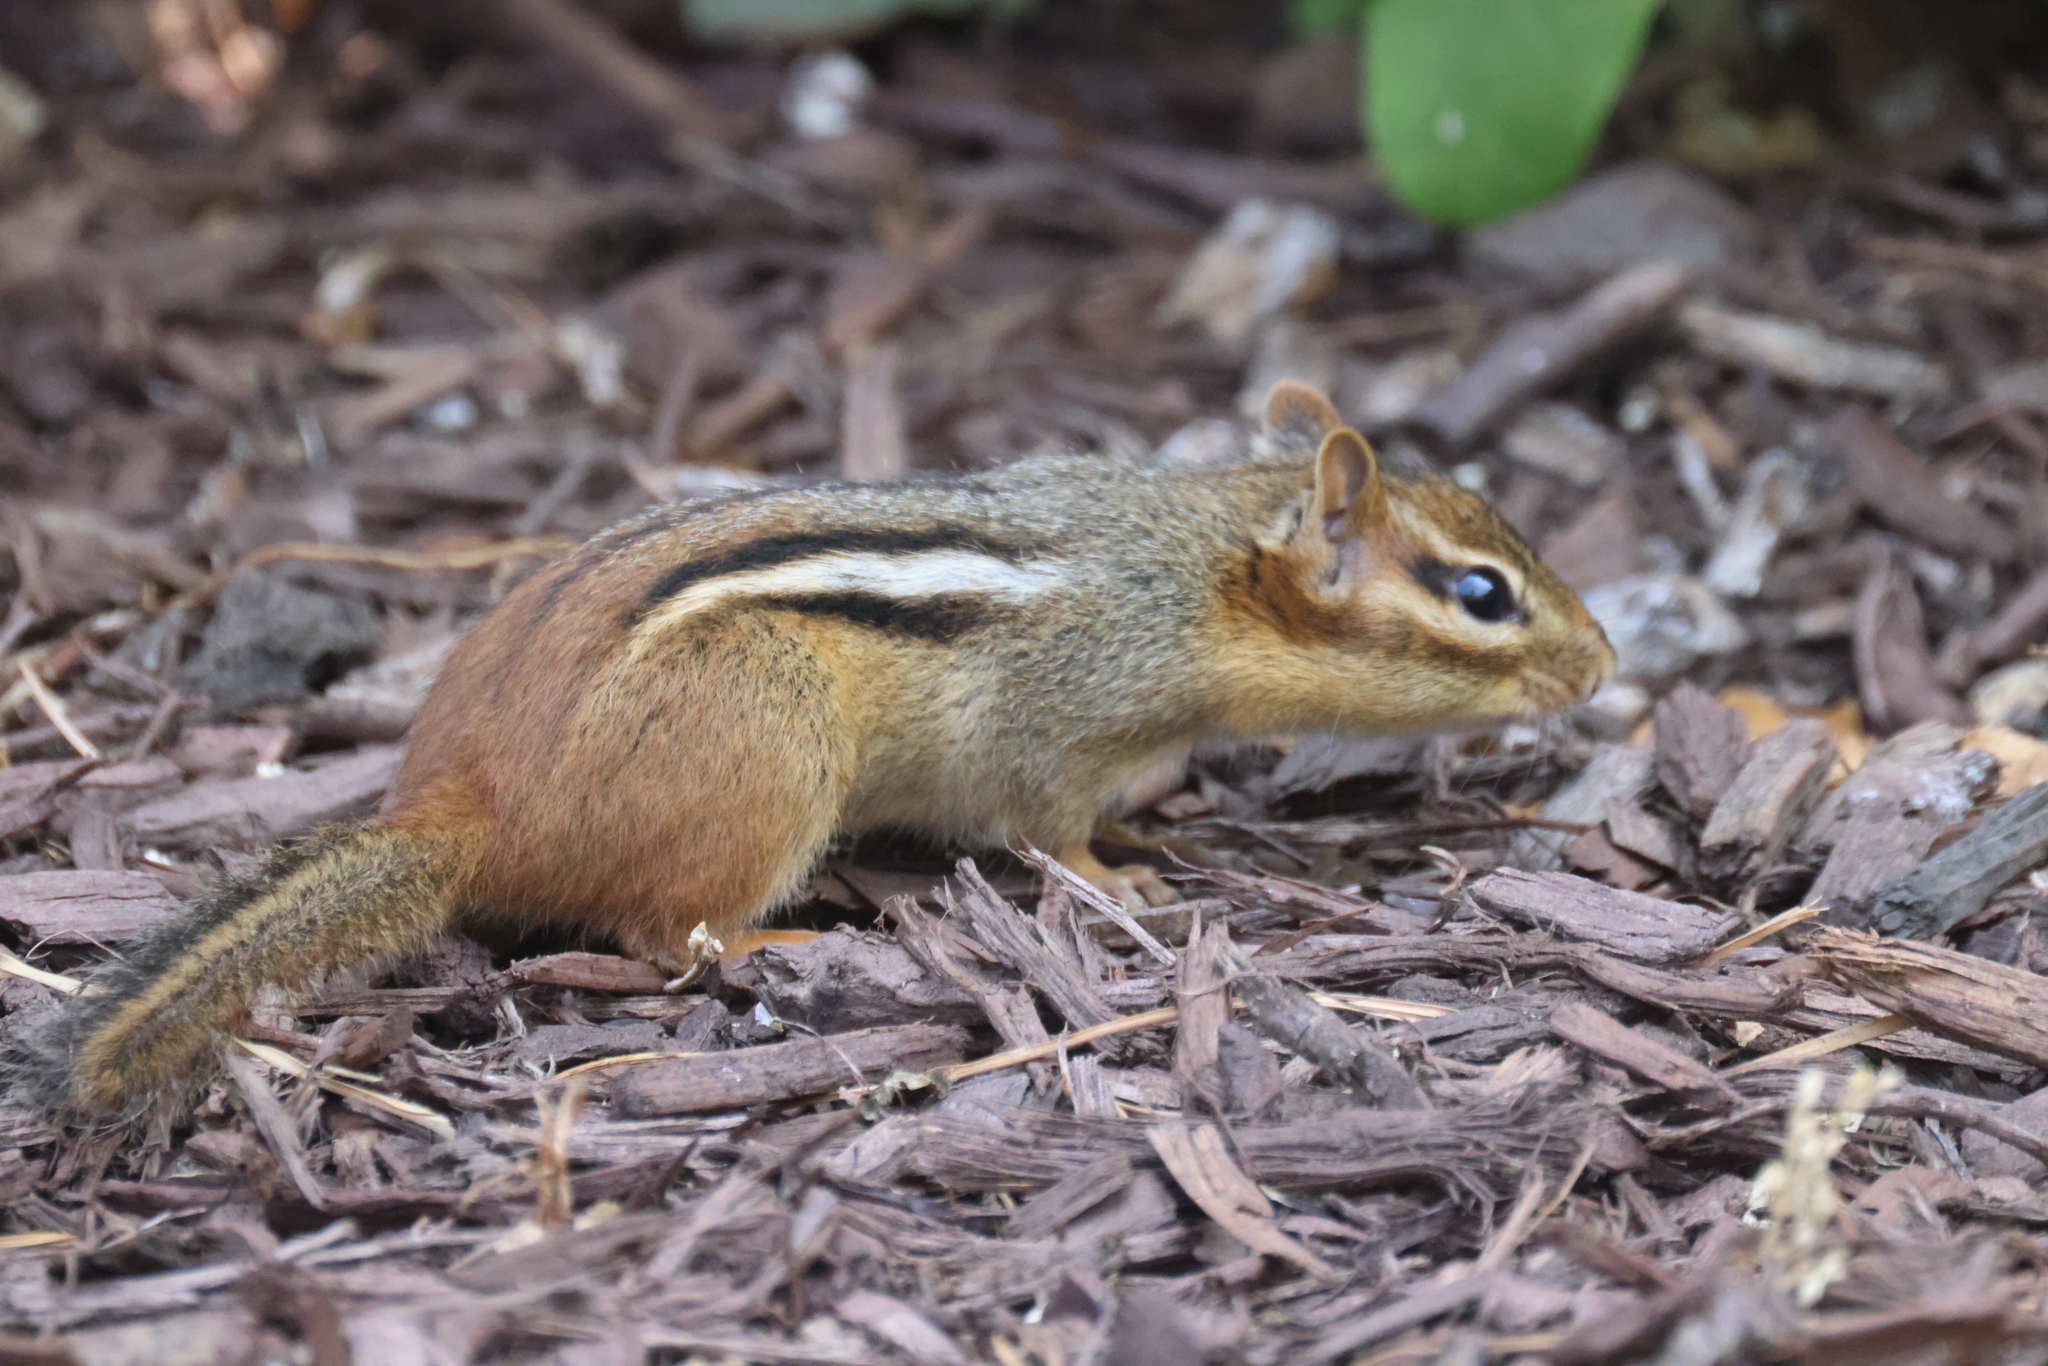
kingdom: Animalia
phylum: Chordata
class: Mammalia
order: Rodentia
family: Sciuridae
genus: Tamias
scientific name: Tamias striatus
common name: Eastern chipmunk
